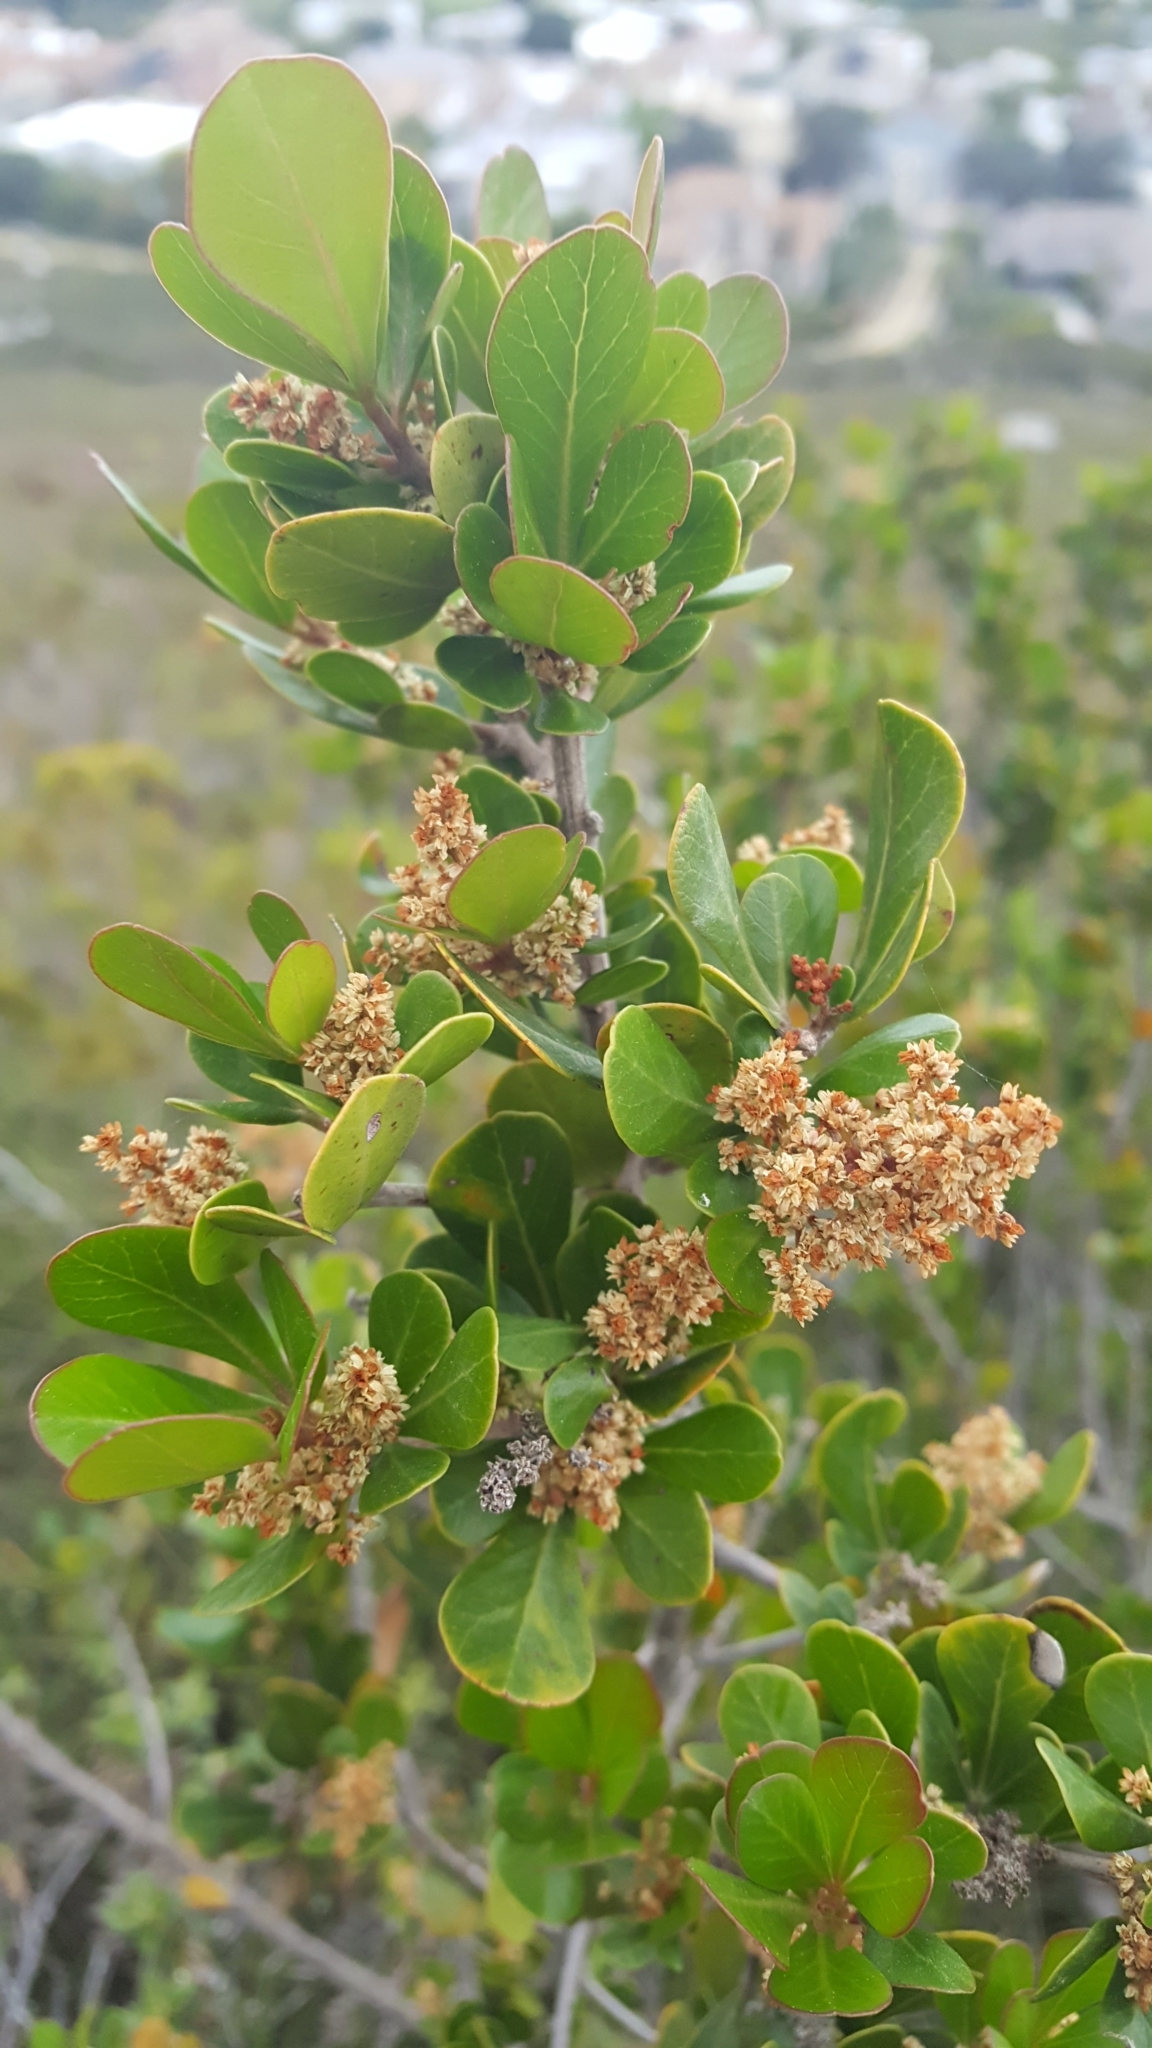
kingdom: Plantae
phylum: Tracheophyta
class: Magnoliopsida
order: Sapindales
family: Anacardiaceae
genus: Searsia
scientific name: Searsia lucida
